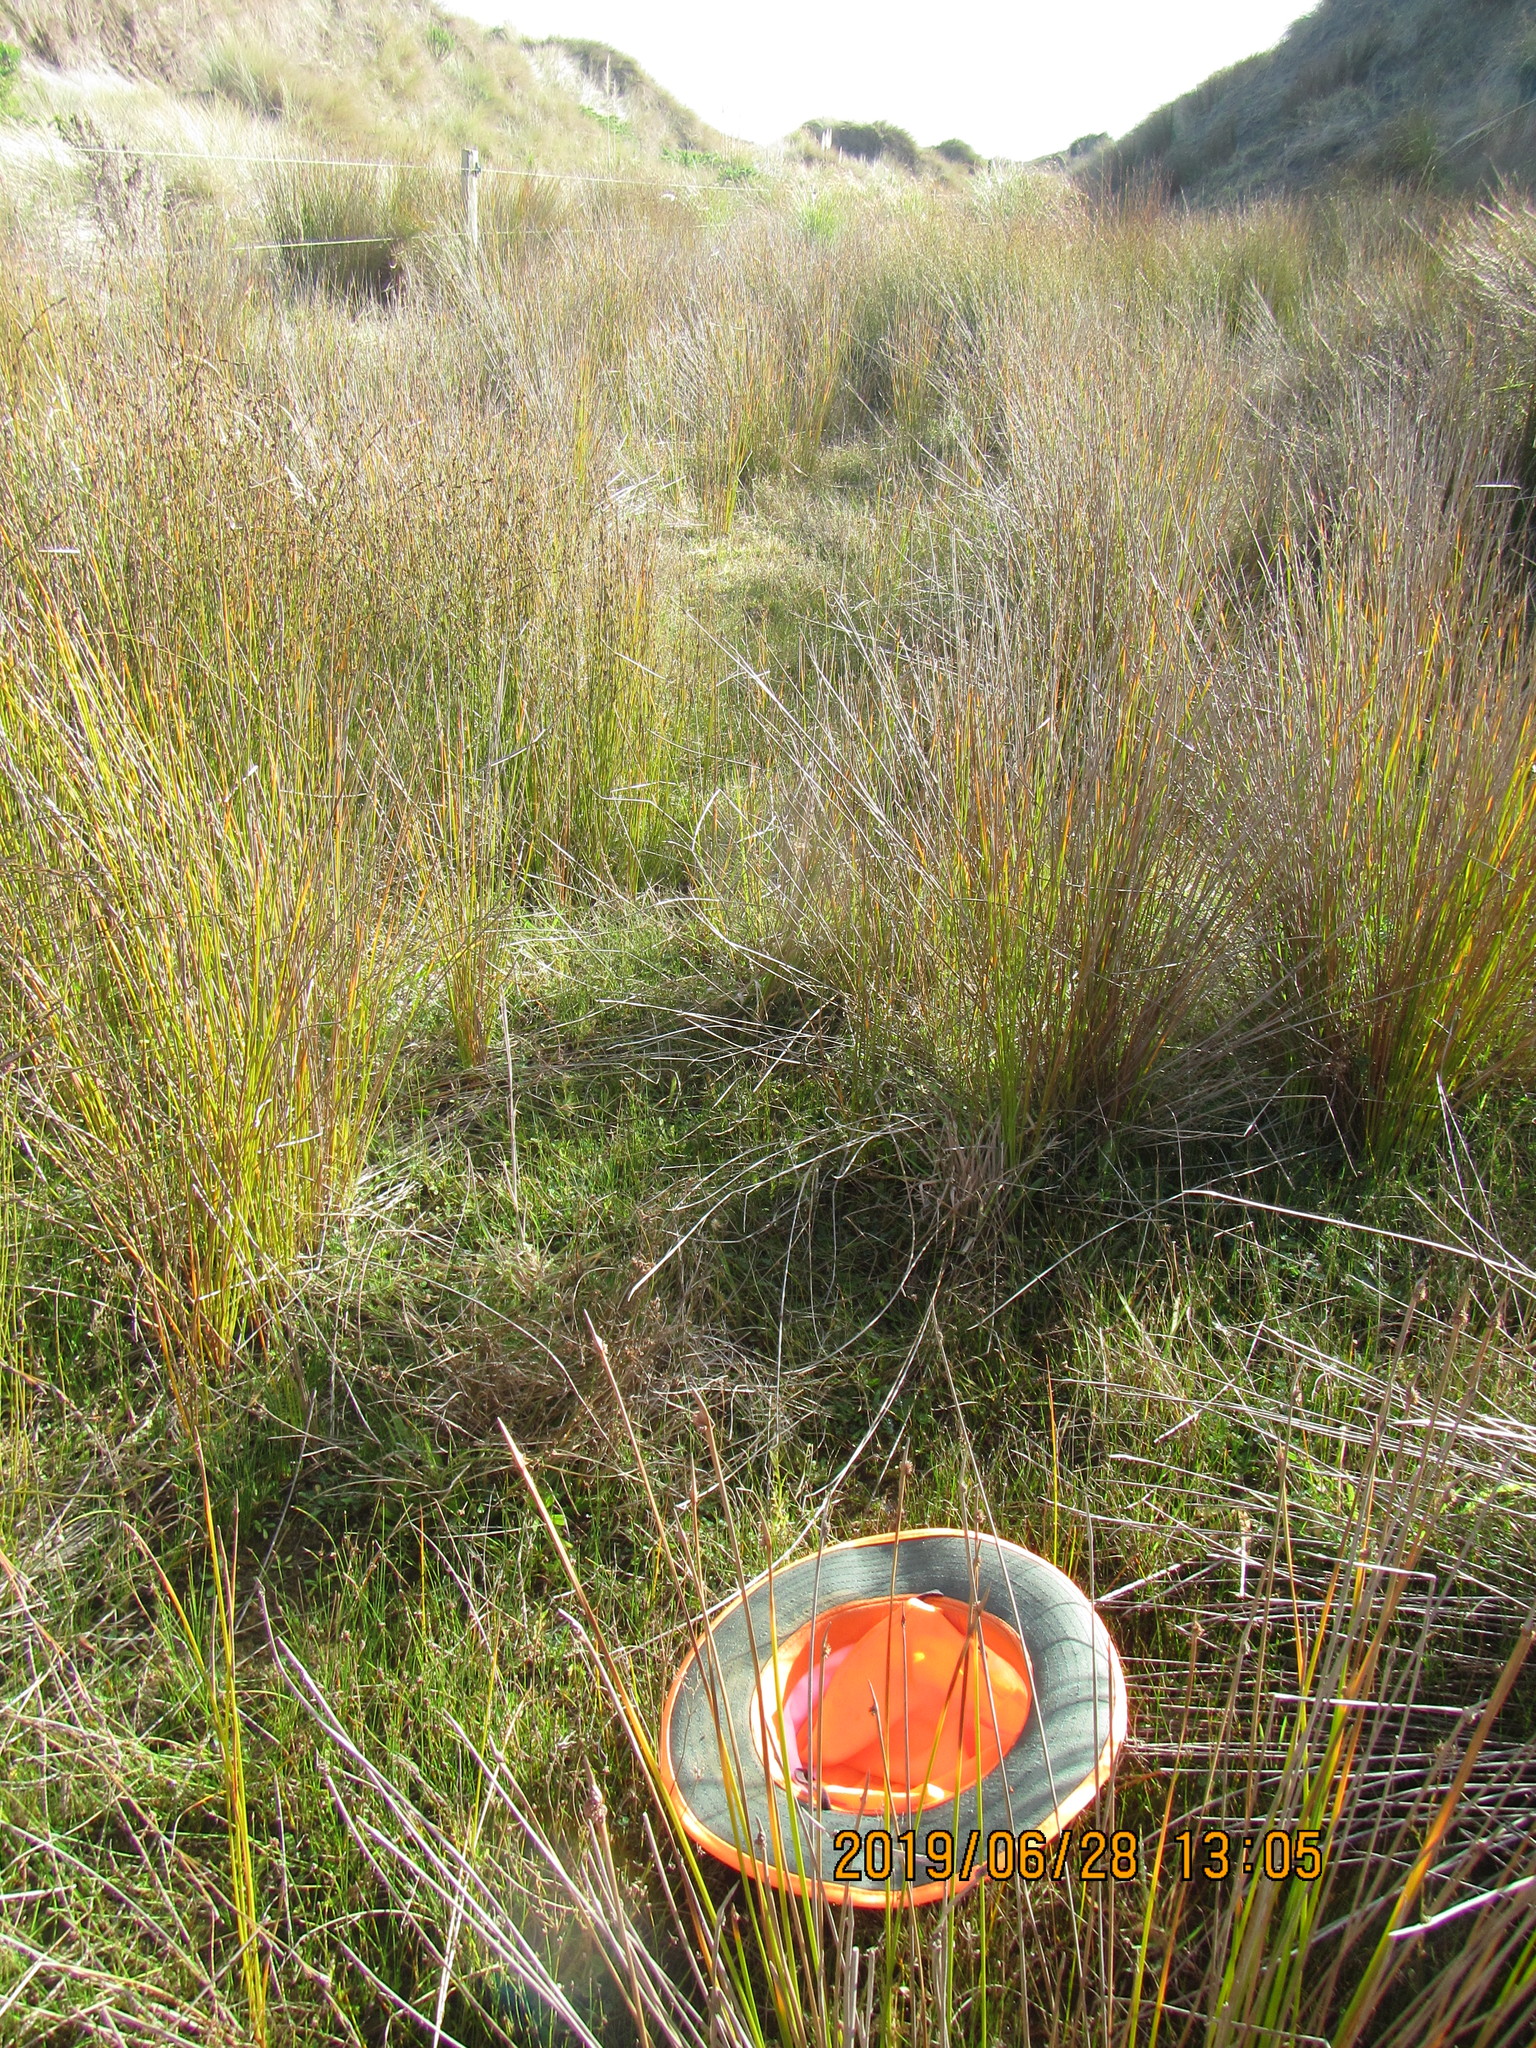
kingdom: Plantae
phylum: Tracheophyta
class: Magnoliopsida
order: Asterales
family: Campanulaceae
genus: Lobelia
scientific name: Lobelia anceps
